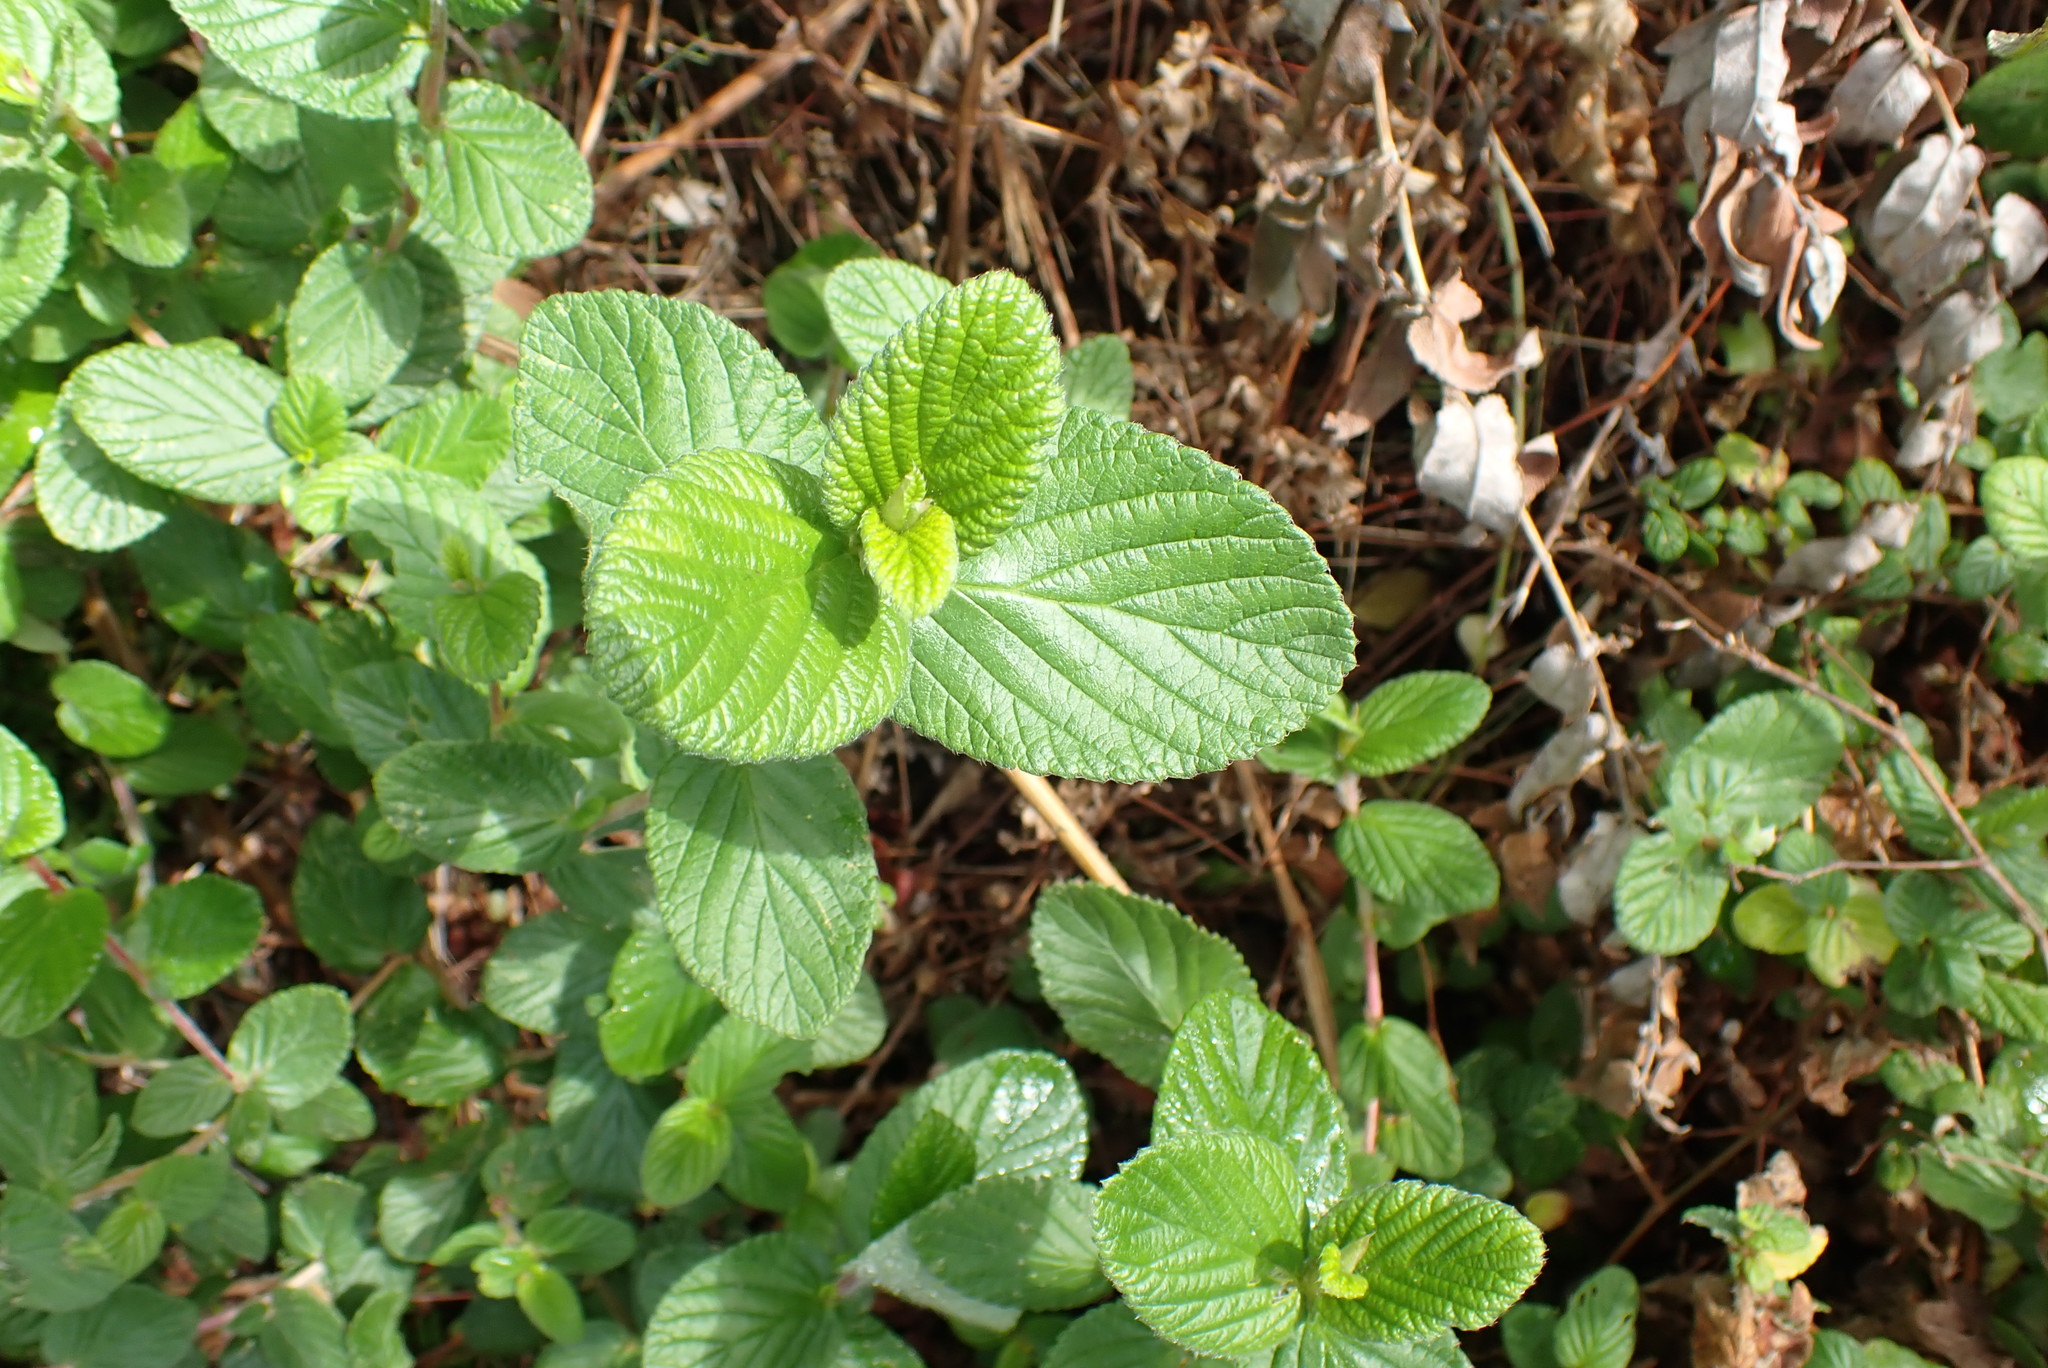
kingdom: Plantae
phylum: Tracheophyta
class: Magnoliopsida
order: Rosales
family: Rosaceae
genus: Cliffortia
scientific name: Cliffortia odorata
